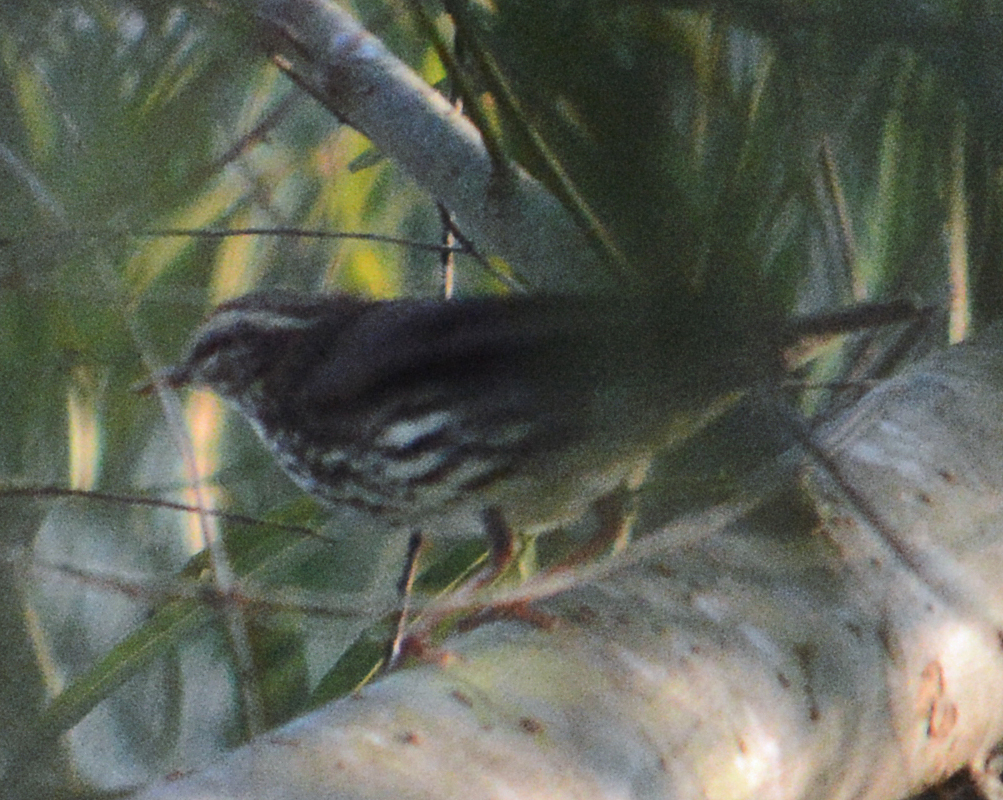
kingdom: Animalia
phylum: Chordata
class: Aves
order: Passeriformes
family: Parulidae
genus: Parkesia
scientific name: Parkesia noveboracensis
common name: Northern waterthrush
